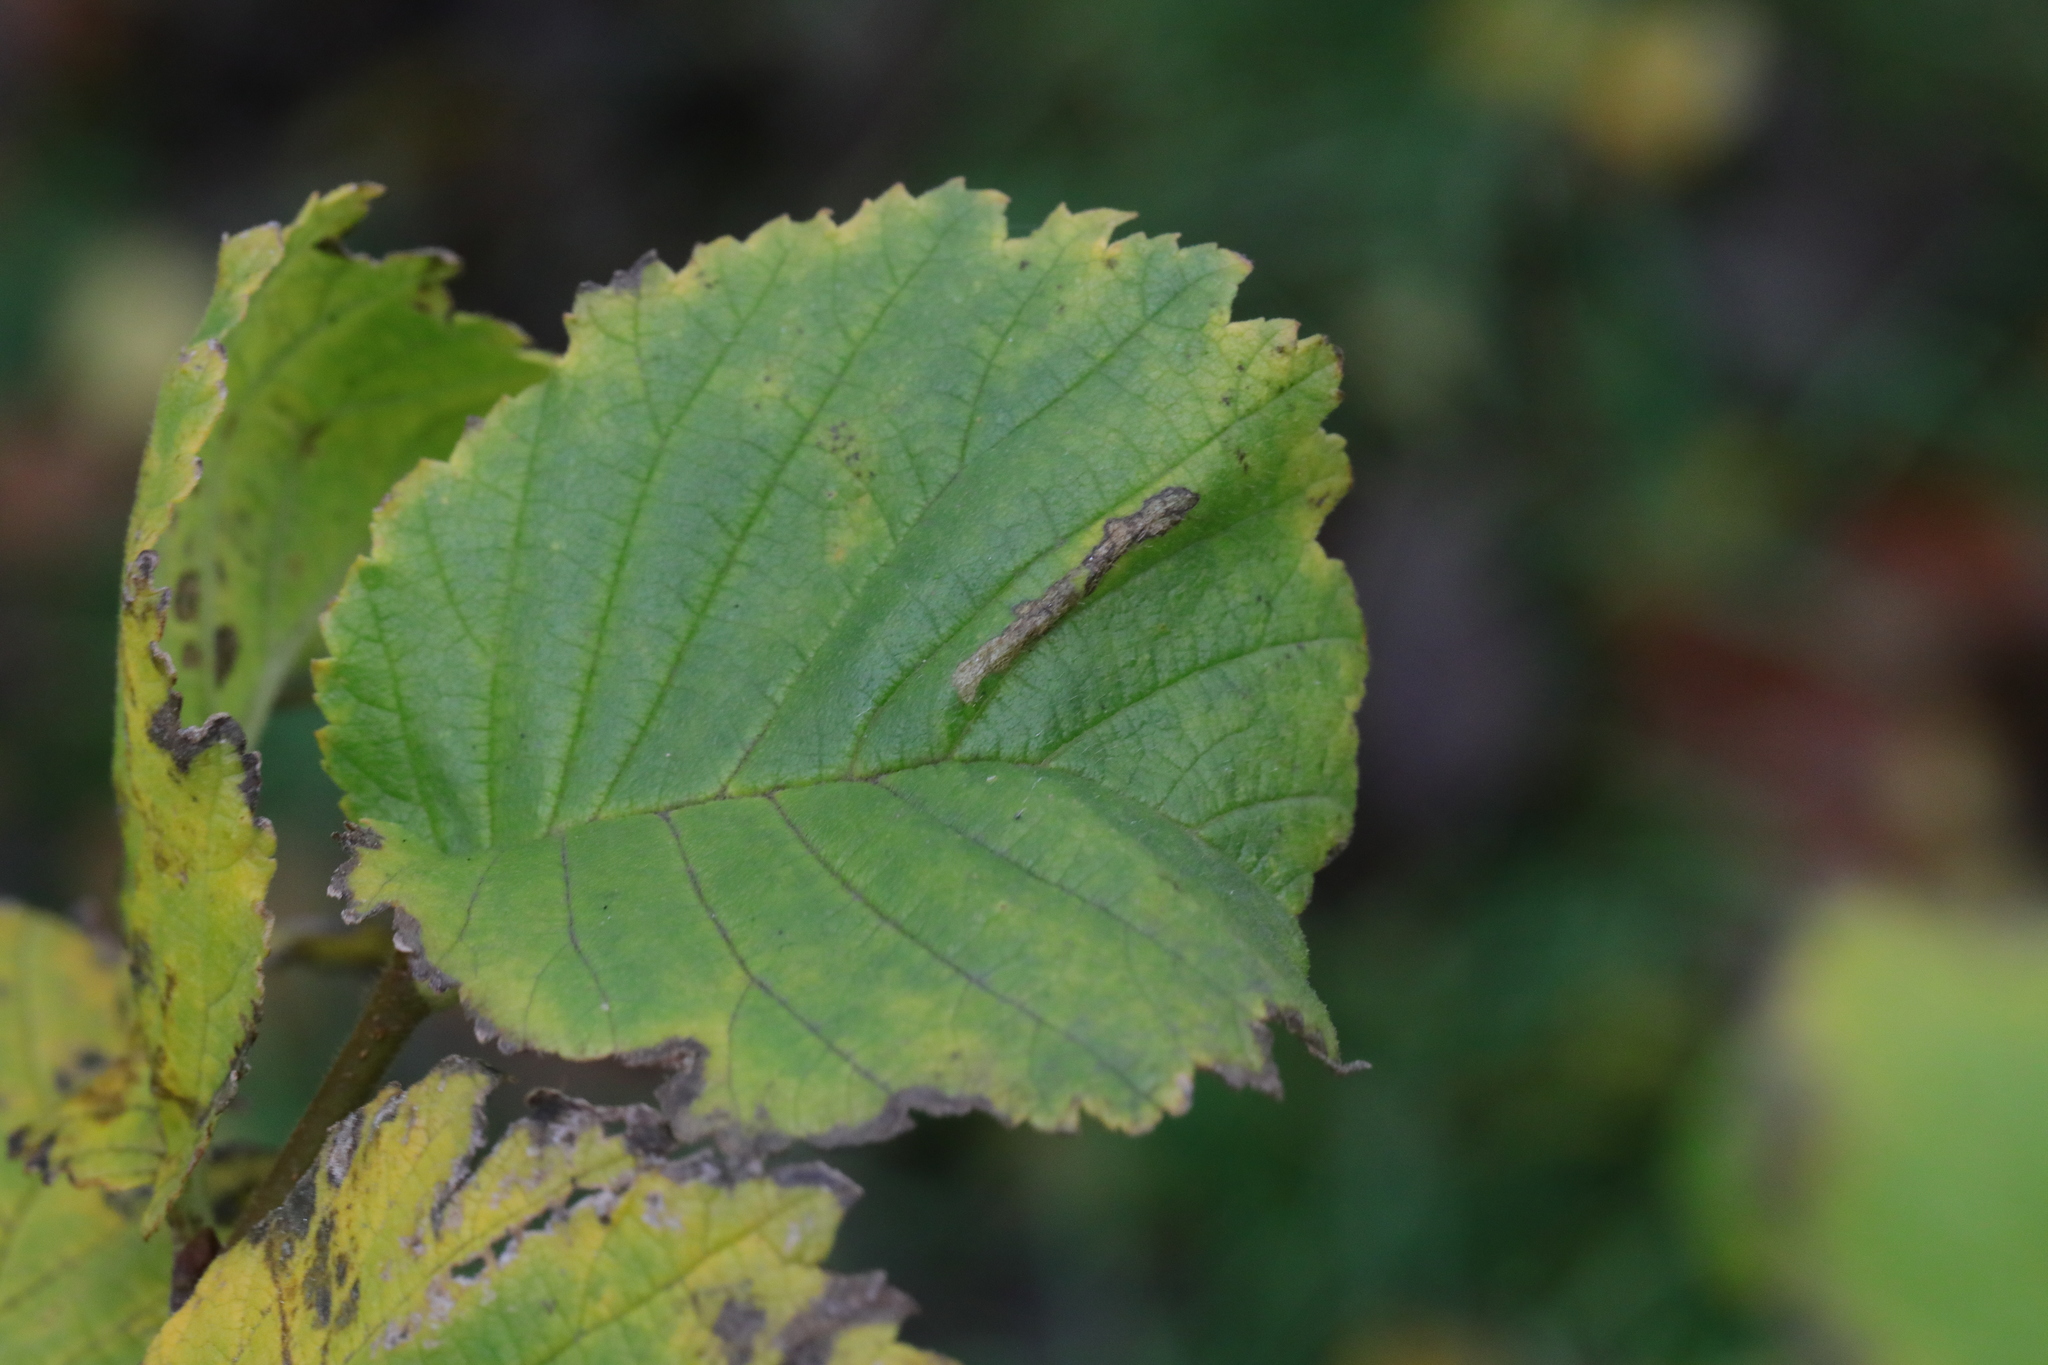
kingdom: Animalia
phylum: Arthropoda
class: Insecta
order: Lepidoptera
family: Gracillariidae
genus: Phyllonorycter
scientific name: Phyllonorycter tristrigella
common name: Elm midget
